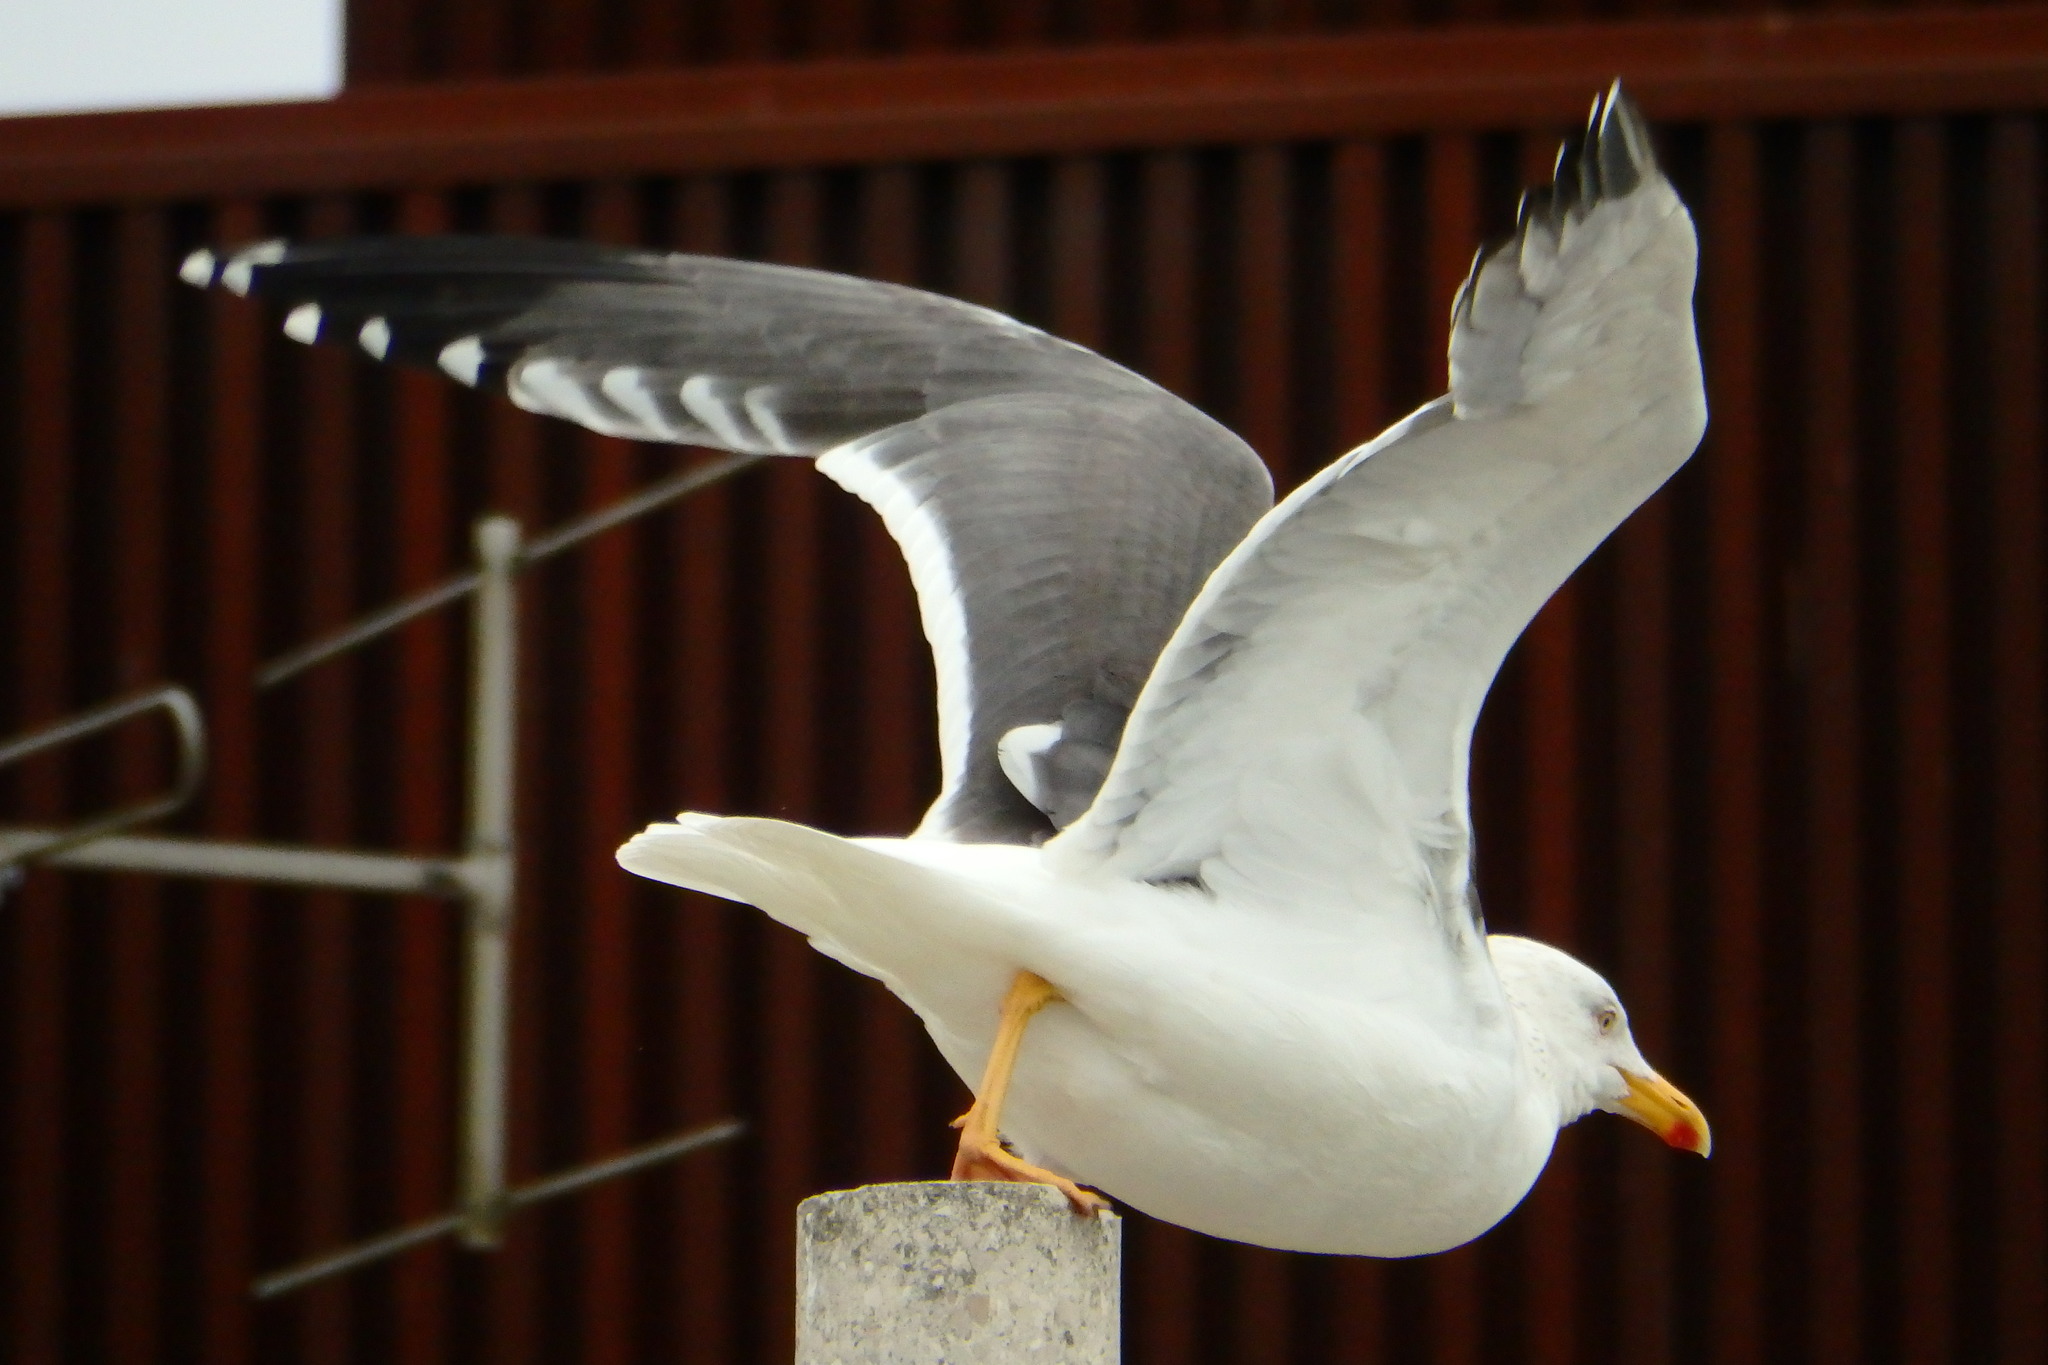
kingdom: Animalia
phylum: Chordata
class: Aves
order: Charadriiformes
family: Laridae
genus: Larus
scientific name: Larus michahellis
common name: Yellow-legged gull
